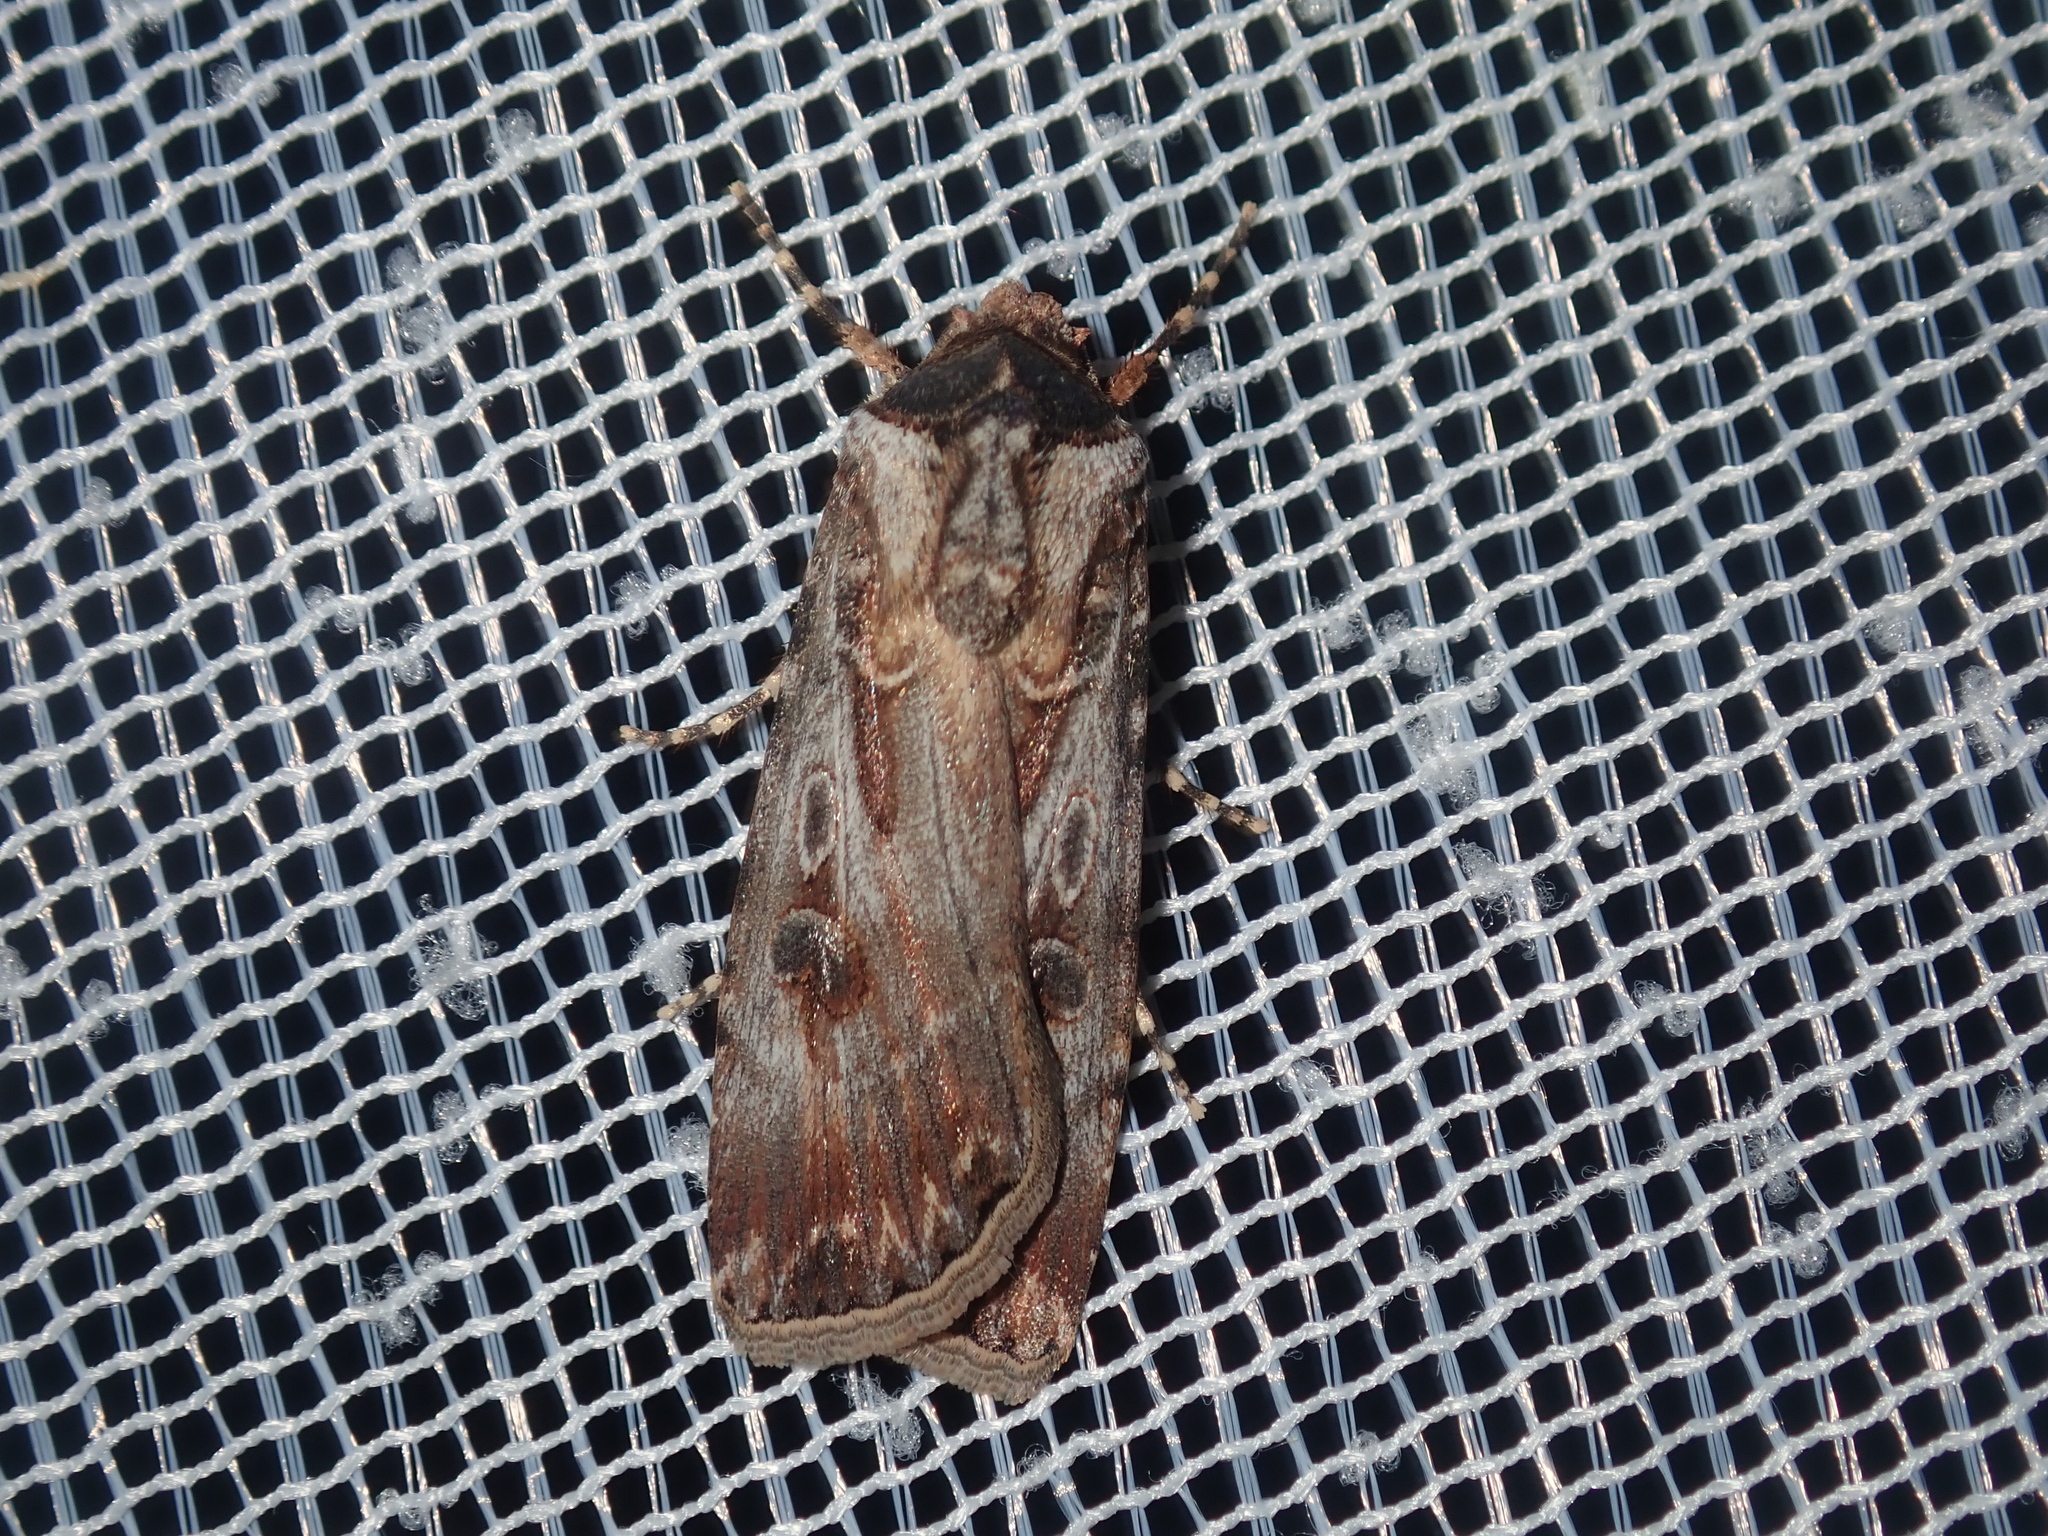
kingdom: Animalia
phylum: Arthropoda
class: Insecta
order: Lepidoptera
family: Noctuidae
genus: Agrotis
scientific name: Agrotis munda
